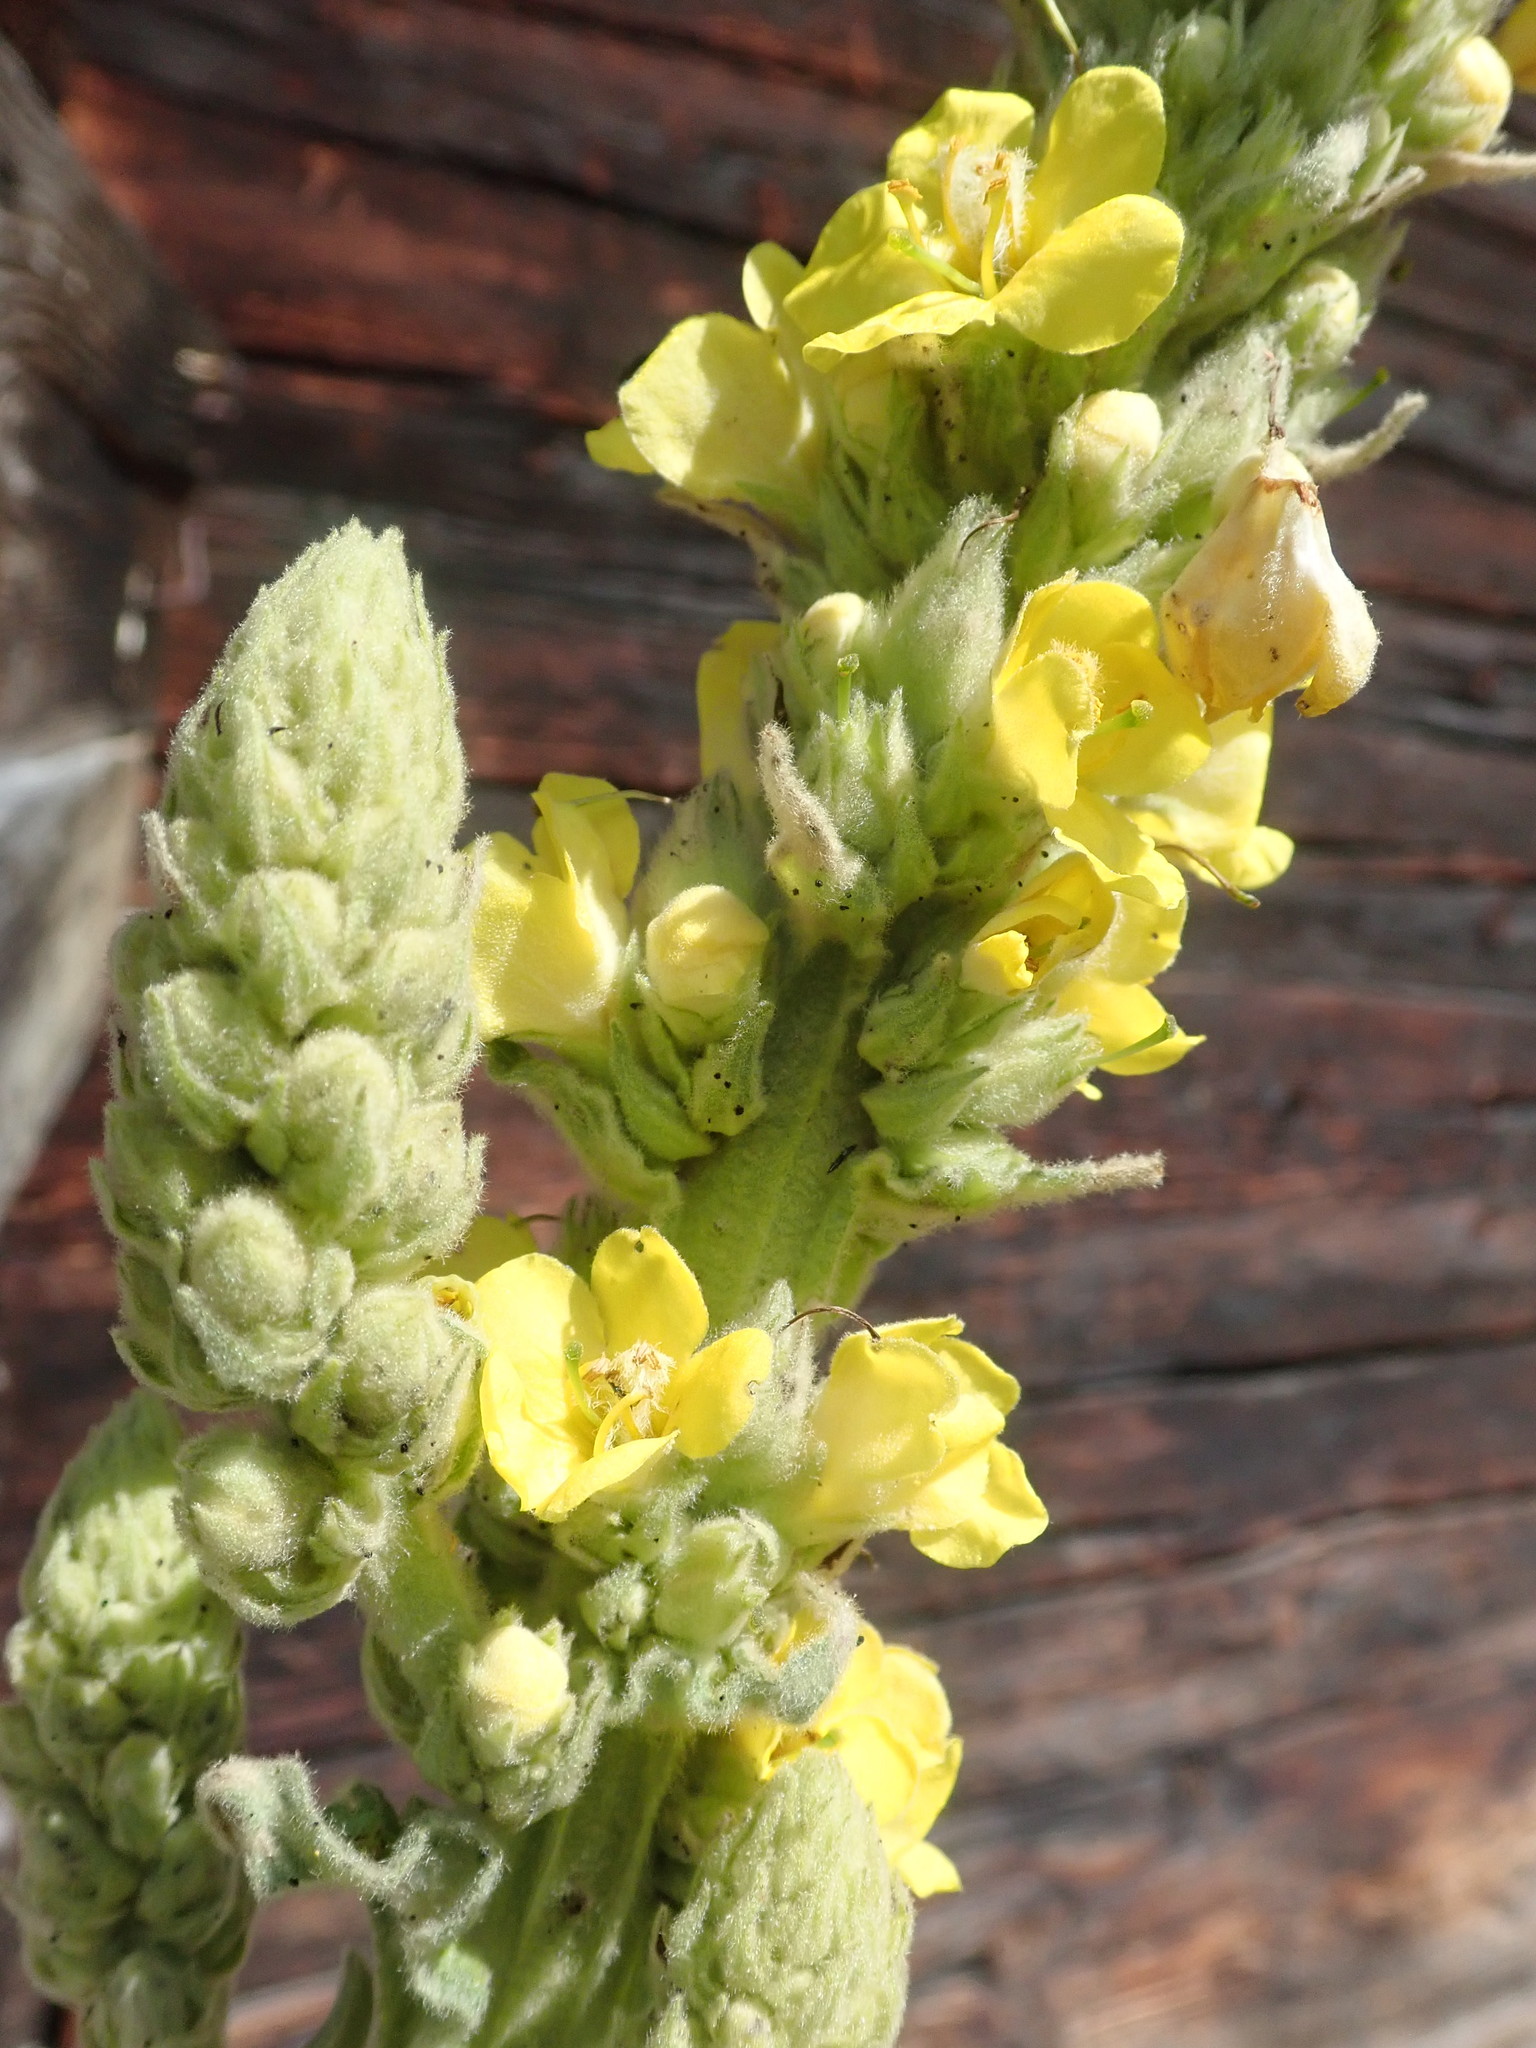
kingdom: Plantae
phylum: Tracheophyta
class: Magnoliopsida
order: Lamiales
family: Scrophulariaceae
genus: Verbascum
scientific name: Verbascum thapsus
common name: Common mullein
